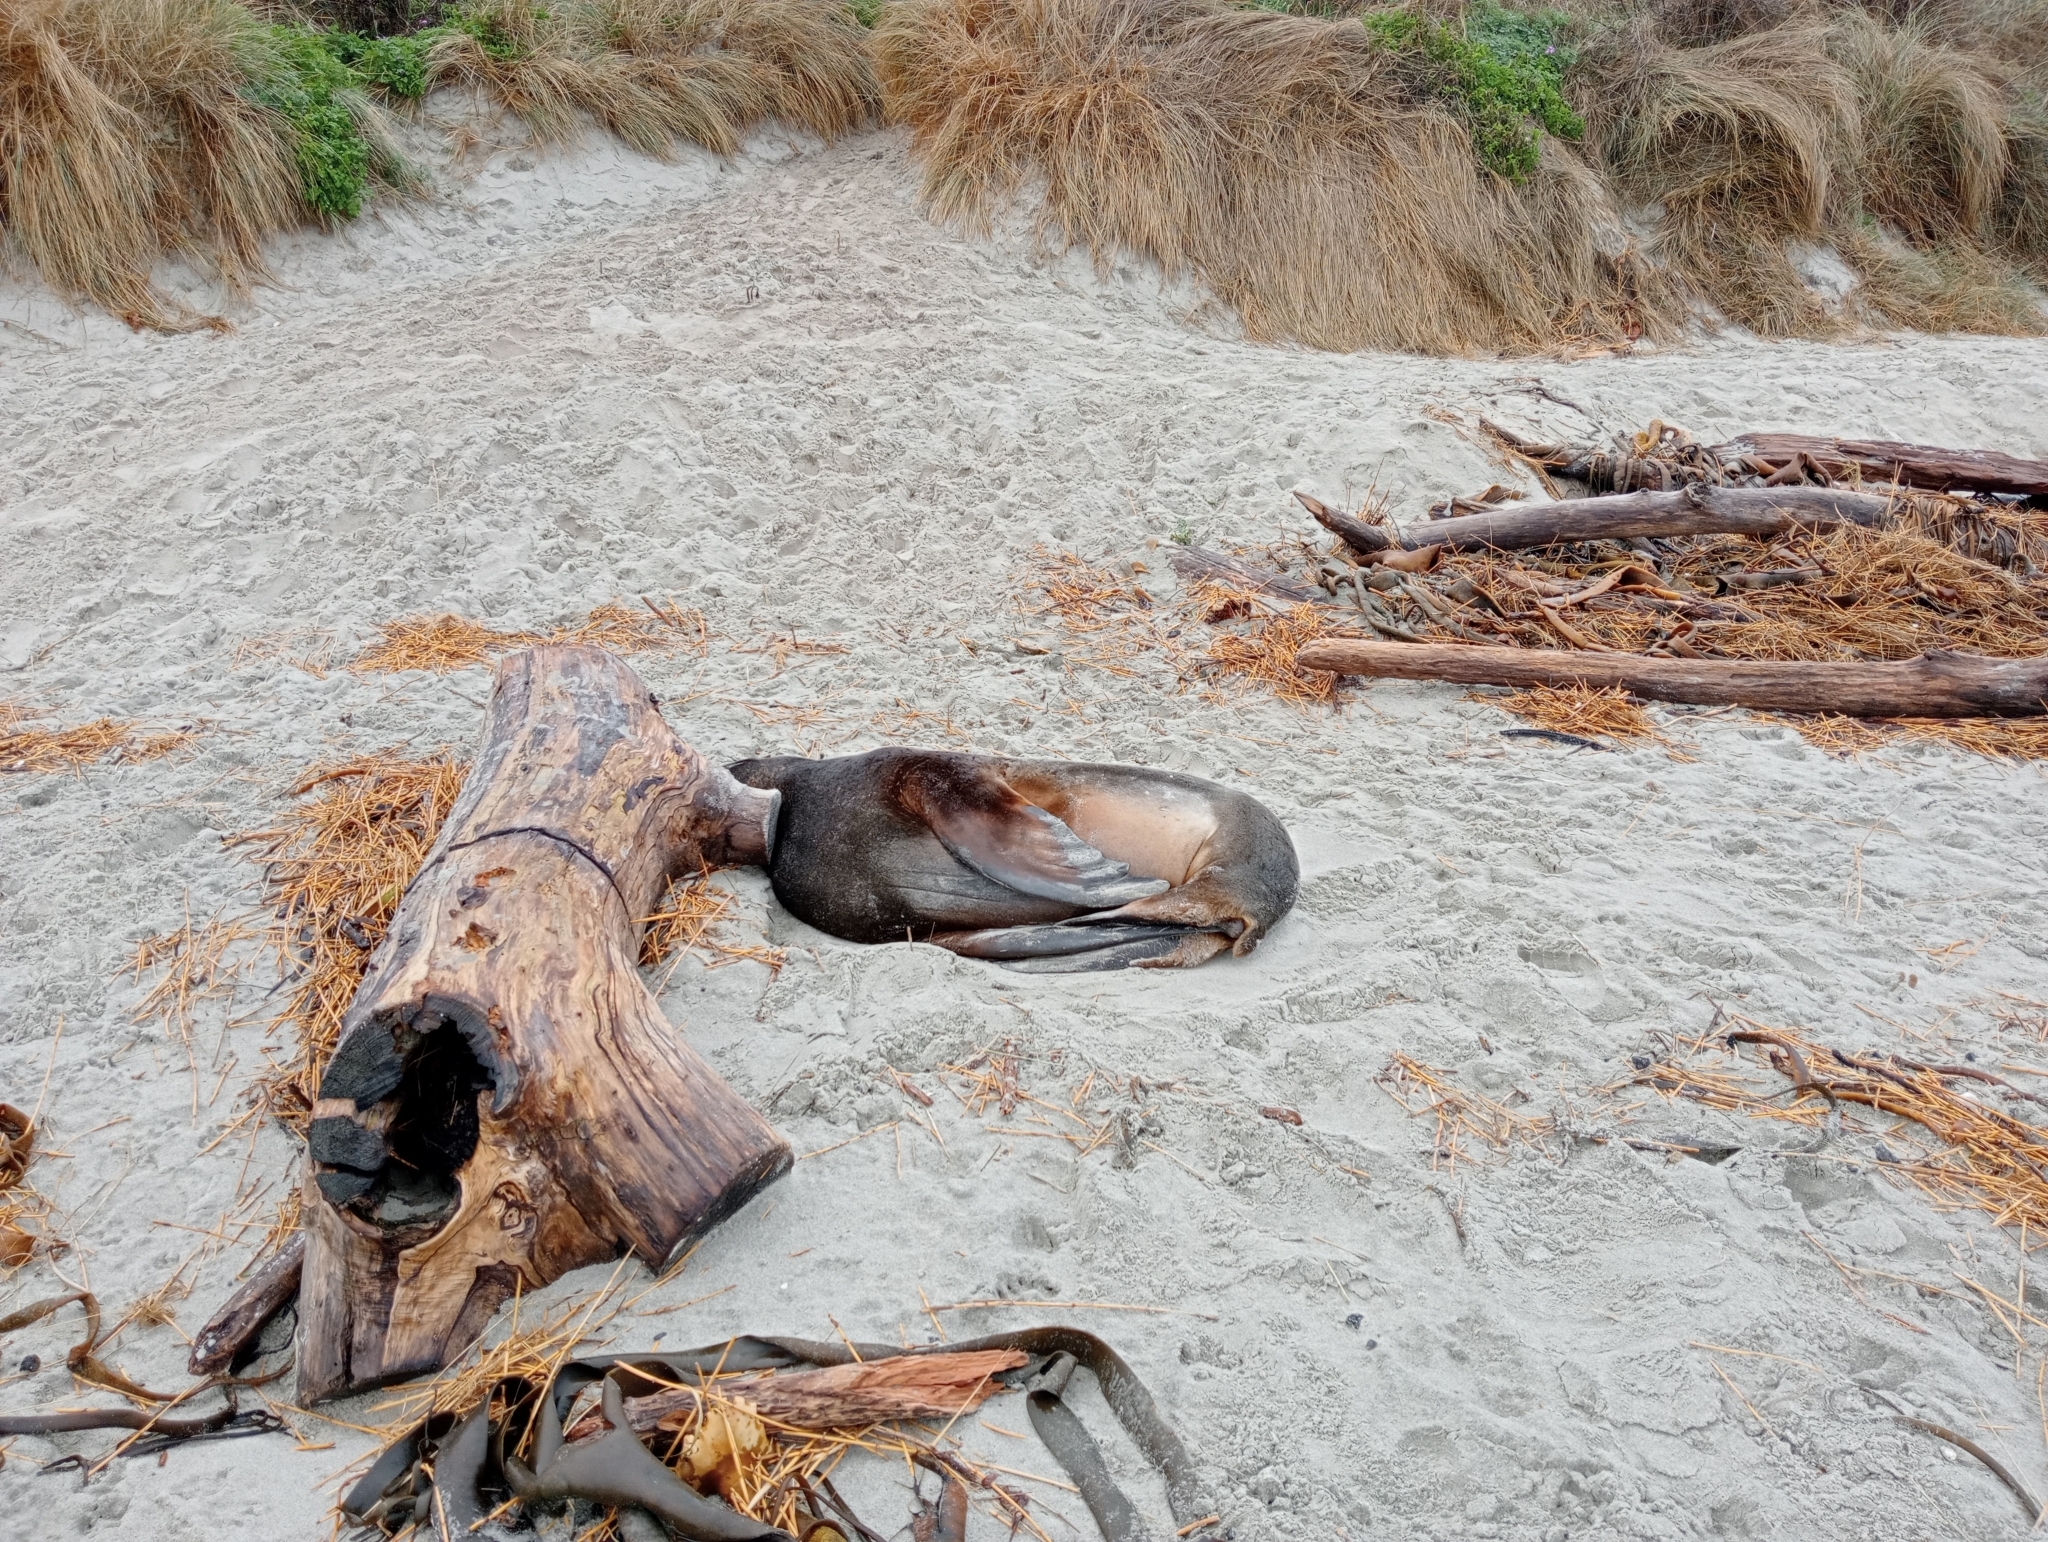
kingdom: Animalia
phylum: Chordata
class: Mammalia
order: Carnivora
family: Otariidae
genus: Phocarctos
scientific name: Phocarctos hookeri
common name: New zealand sea lion
